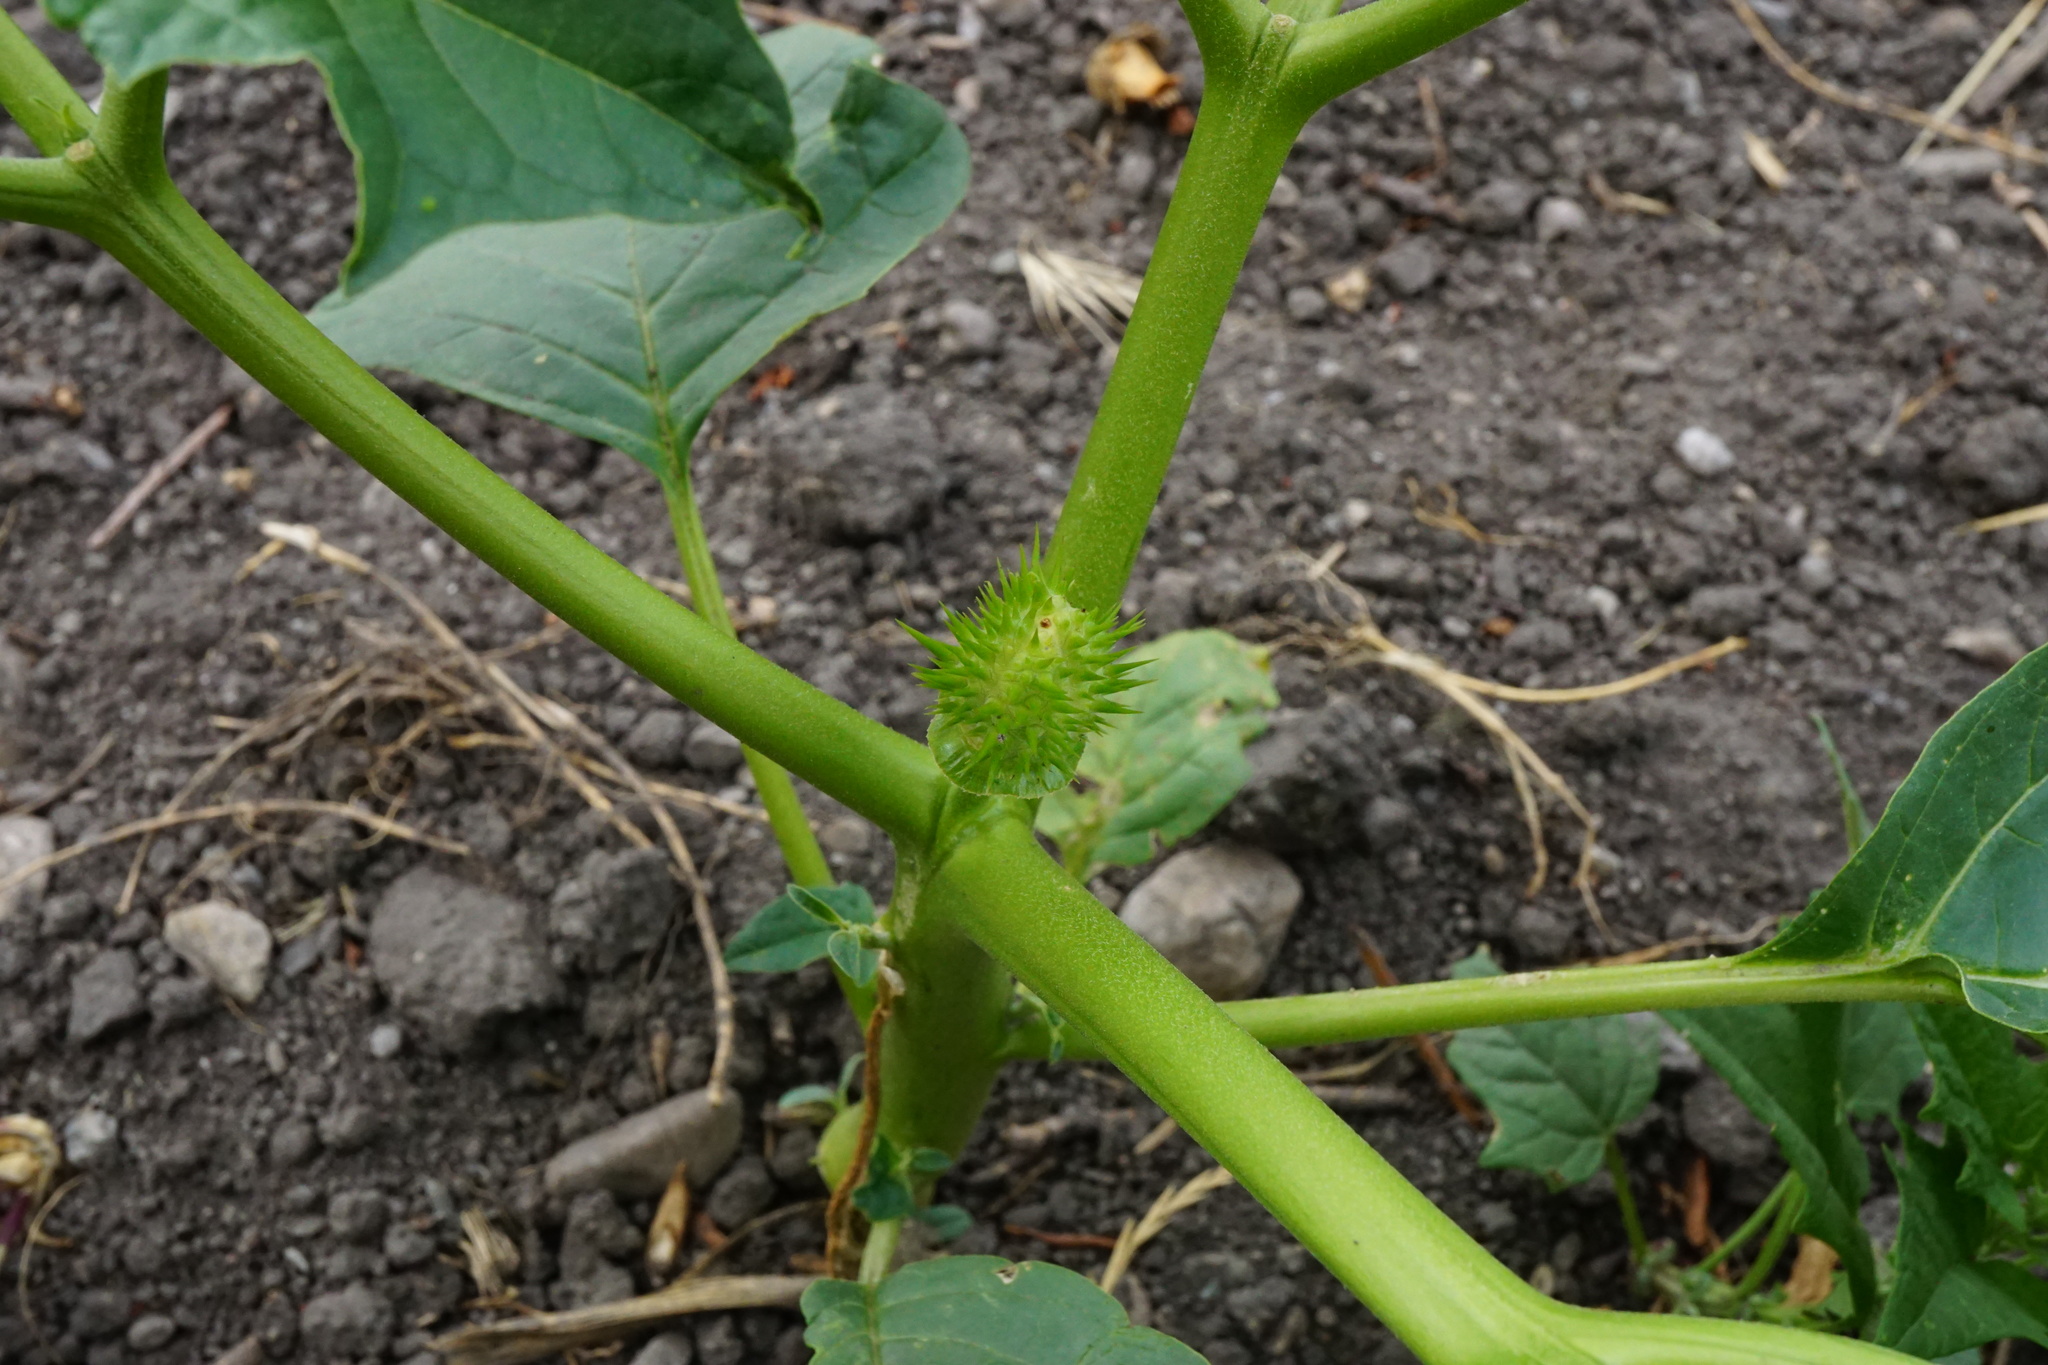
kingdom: Plantae
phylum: Tracheophyta
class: Magnoliopsida
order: Solanales
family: Solanaceae
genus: Datura
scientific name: Datura stramonium
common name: Thorn-apple
